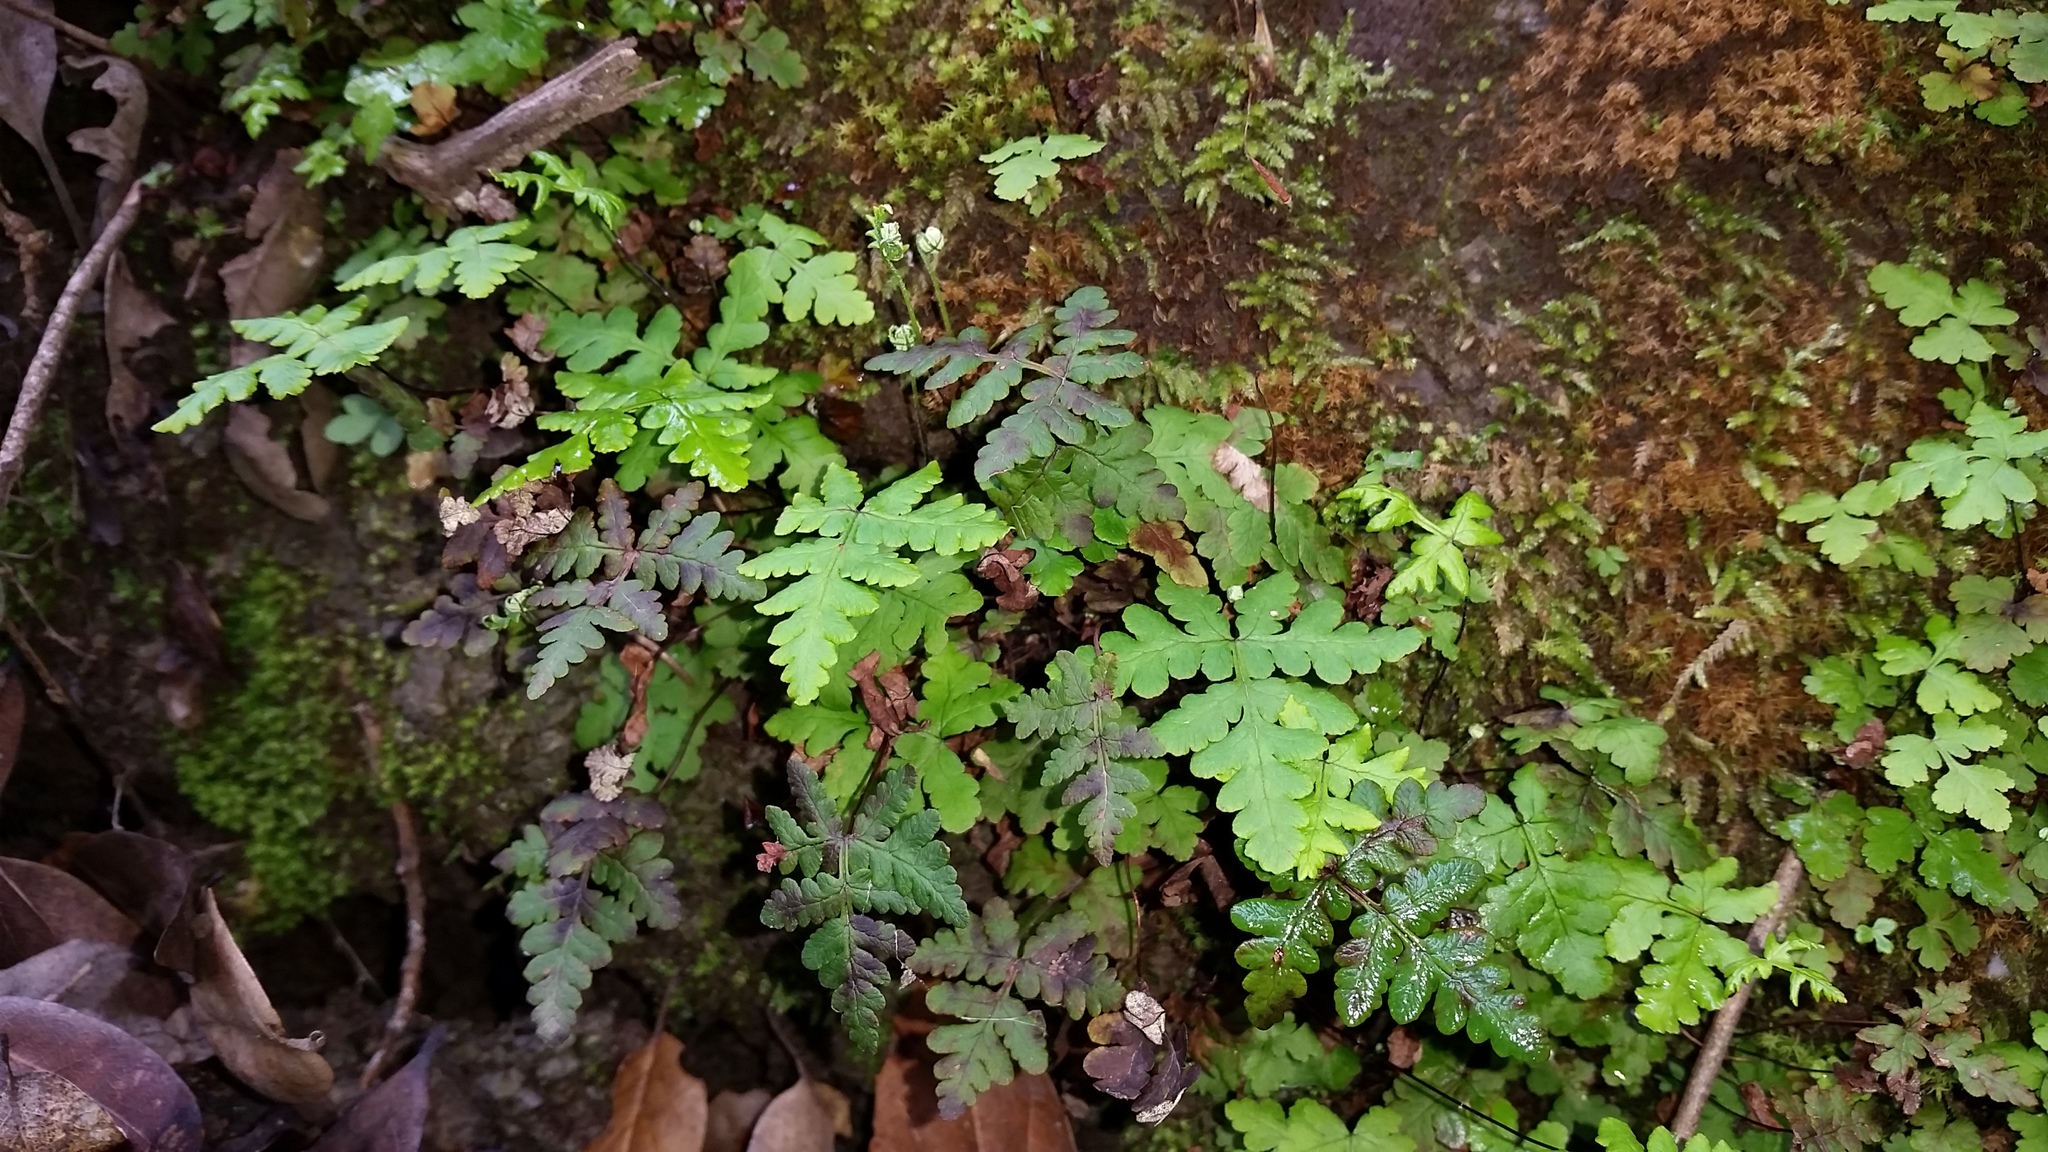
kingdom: Plantae
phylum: Tracheophyta
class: Polypodiopsida
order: Polypodiales
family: Pteridaceae
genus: Pentagramma
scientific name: Pentagramma triangularis
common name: Gold fern
